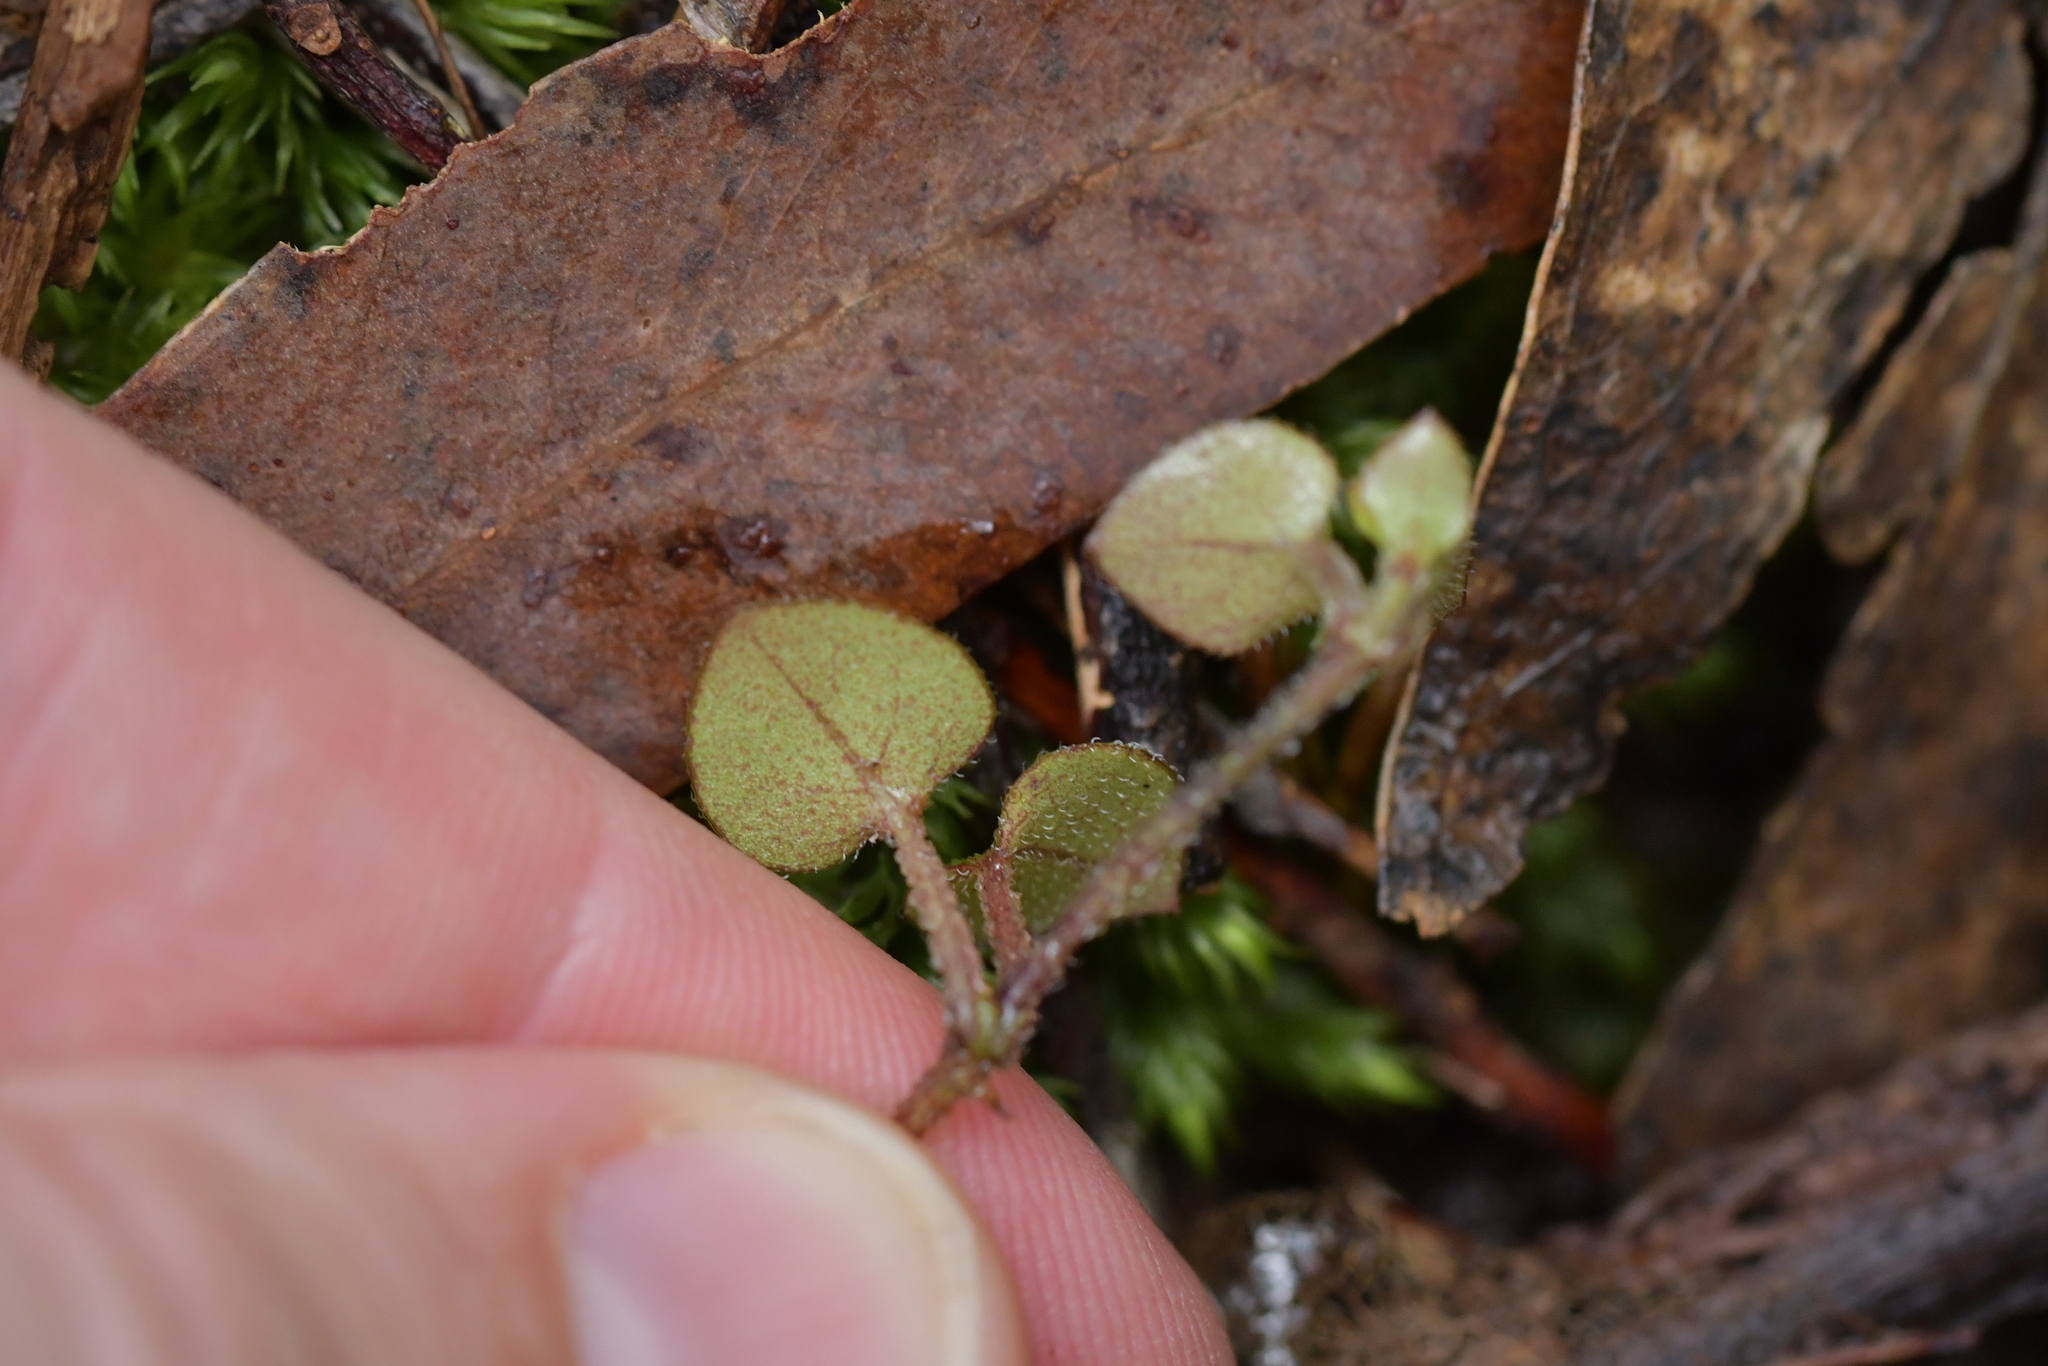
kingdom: Plantae
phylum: Tracheophyta
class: Magnoliopsida
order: Gentianales
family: Rubiaceae
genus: Nertera
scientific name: Nertera dichondrifolia
